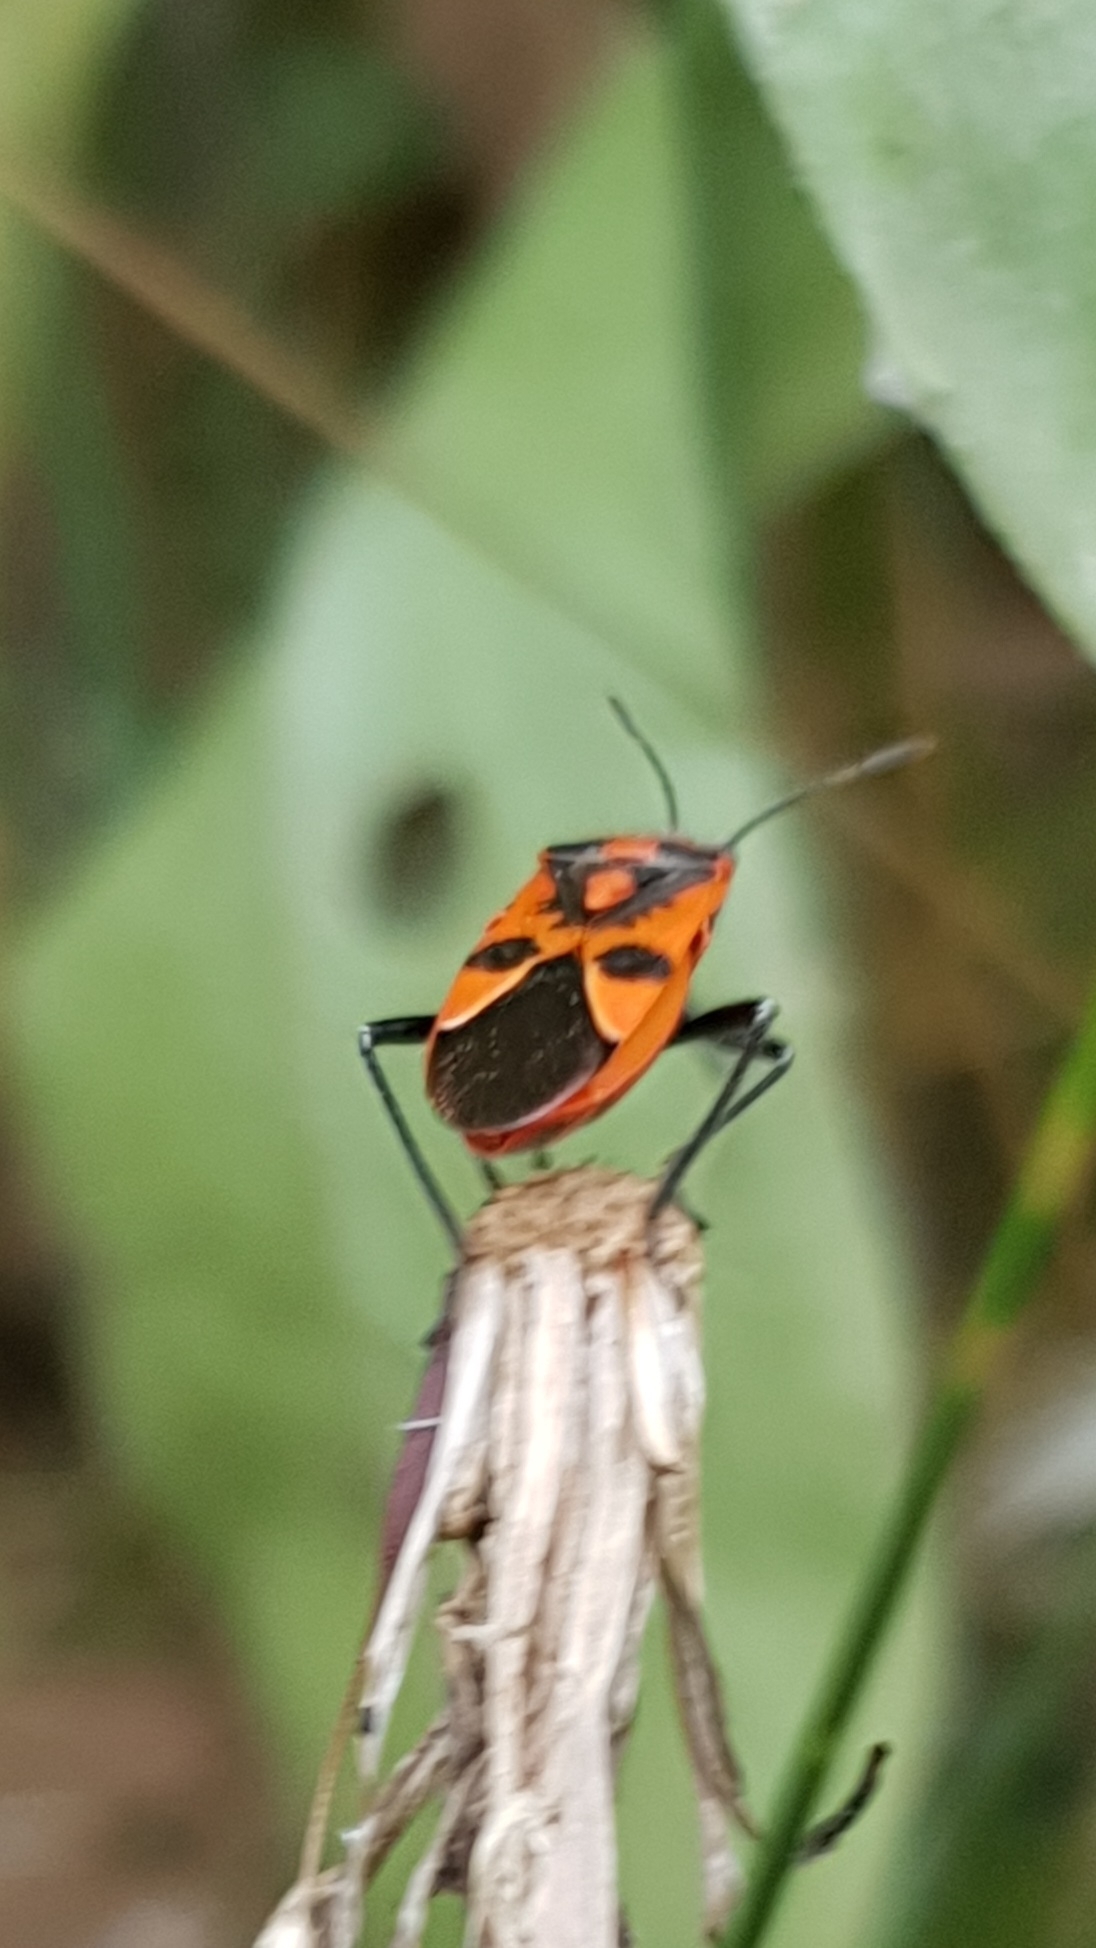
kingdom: Animalia
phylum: Arthropoda
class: Insecta
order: Hemiptera
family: Rhopalidae
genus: Corizus
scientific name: Corizus hyoscyami
